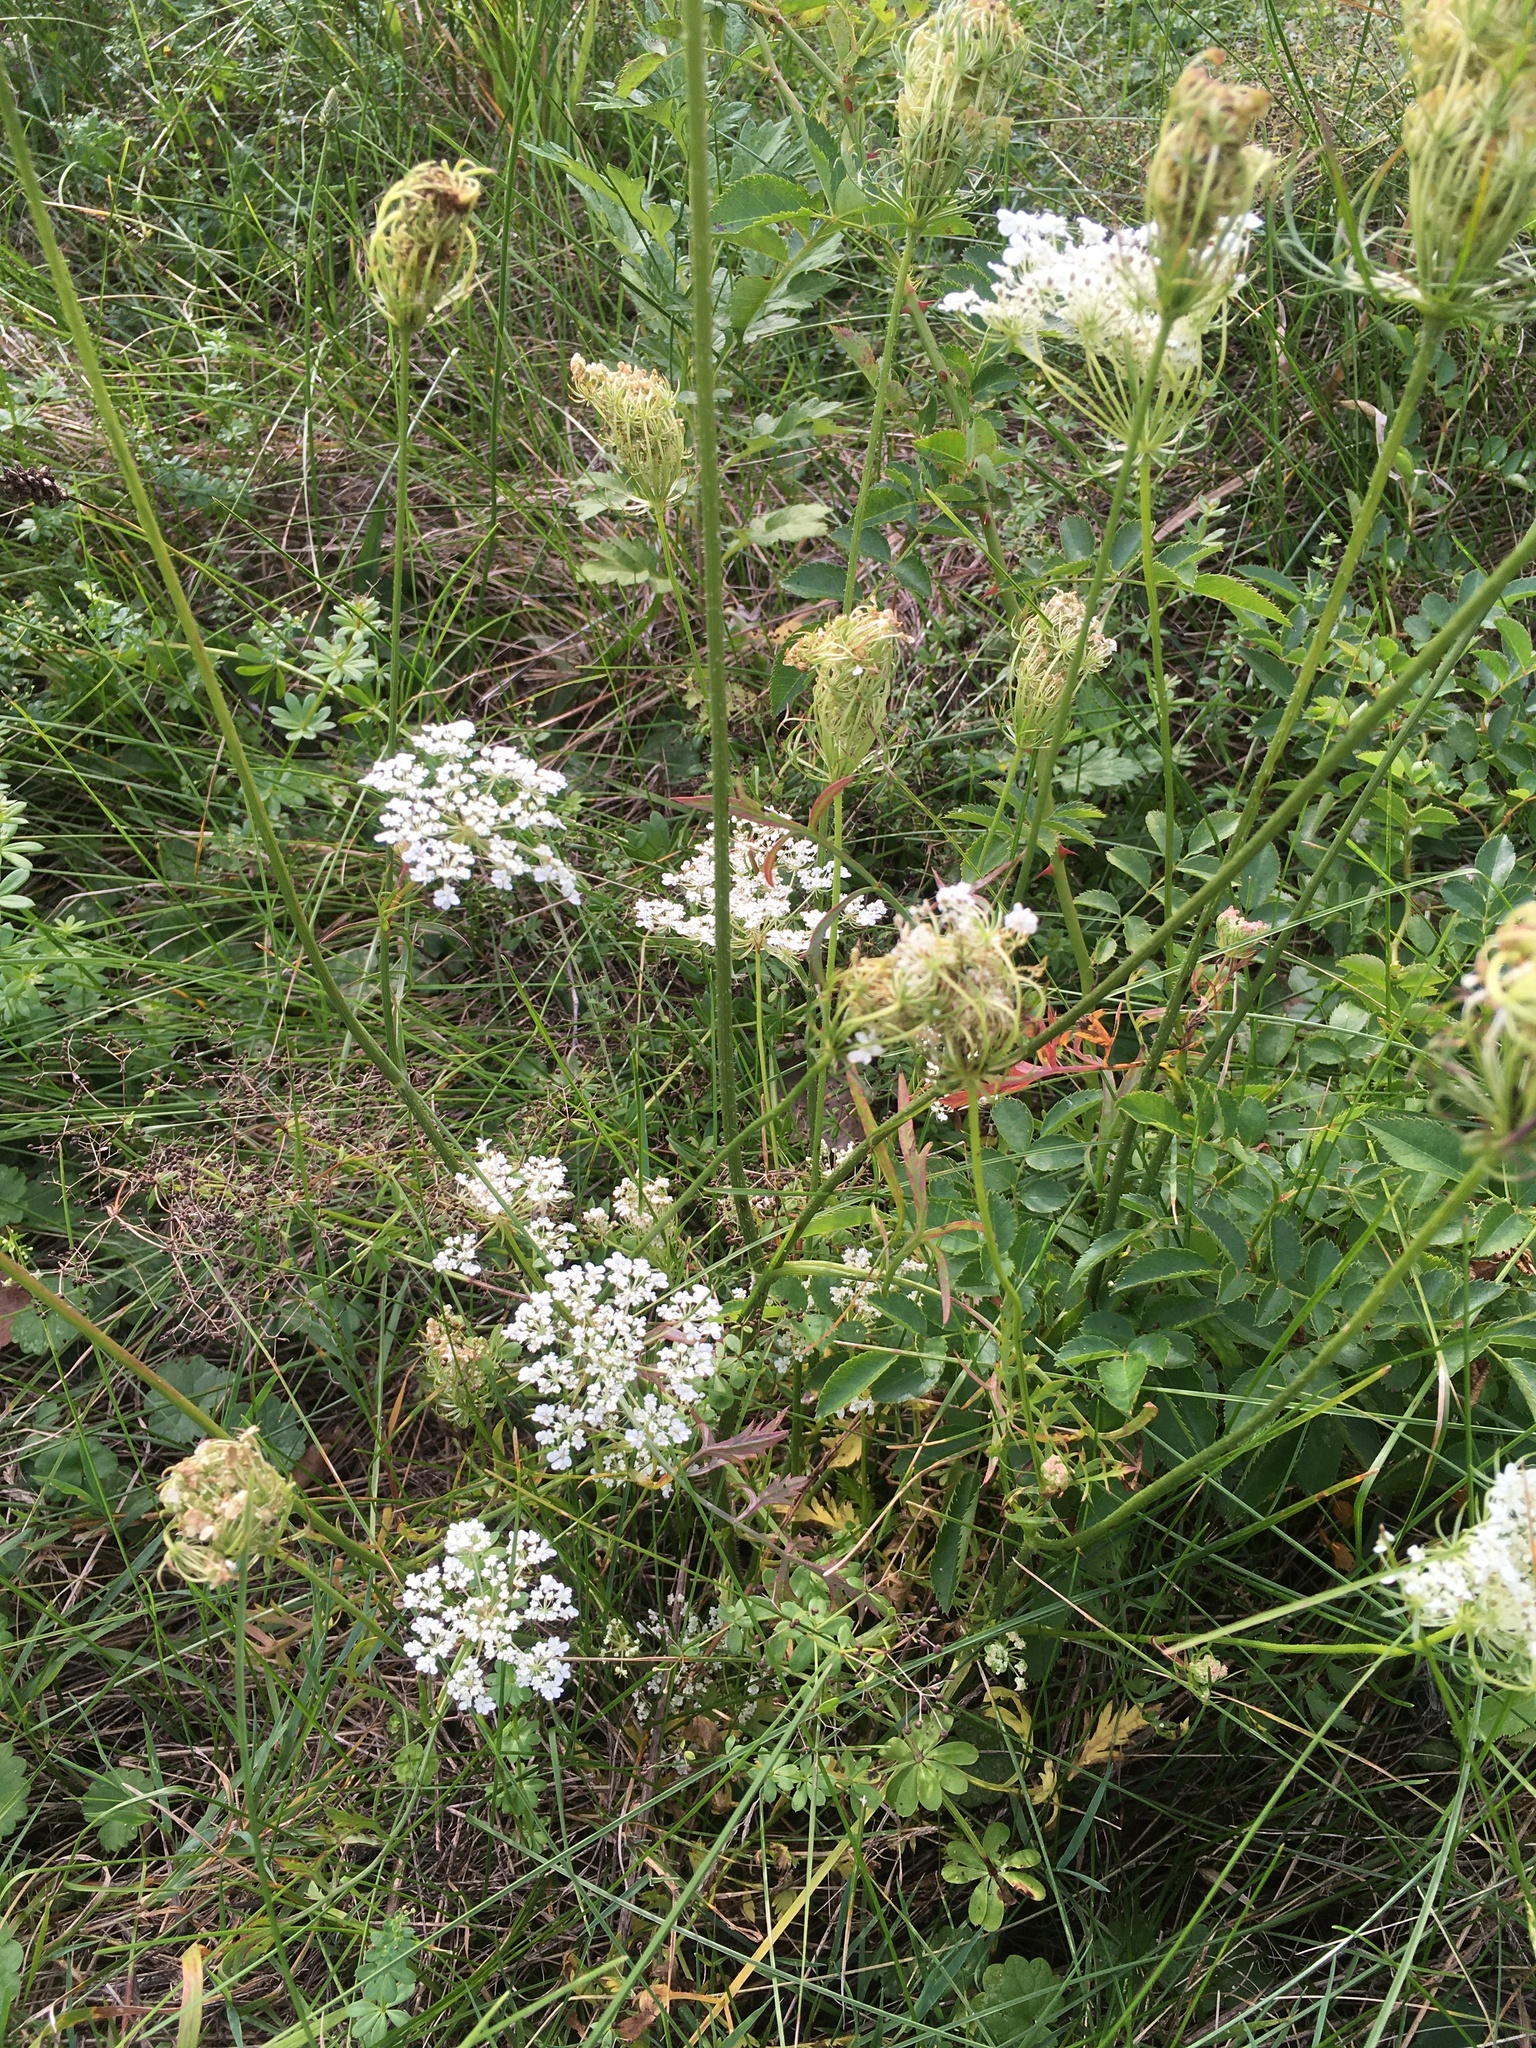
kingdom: Plantae
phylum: Tracheophyta
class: Magnoliopsida
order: Apiales
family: Apiaceae
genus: Daucus
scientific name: Daucus carota
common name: Wild carrot
